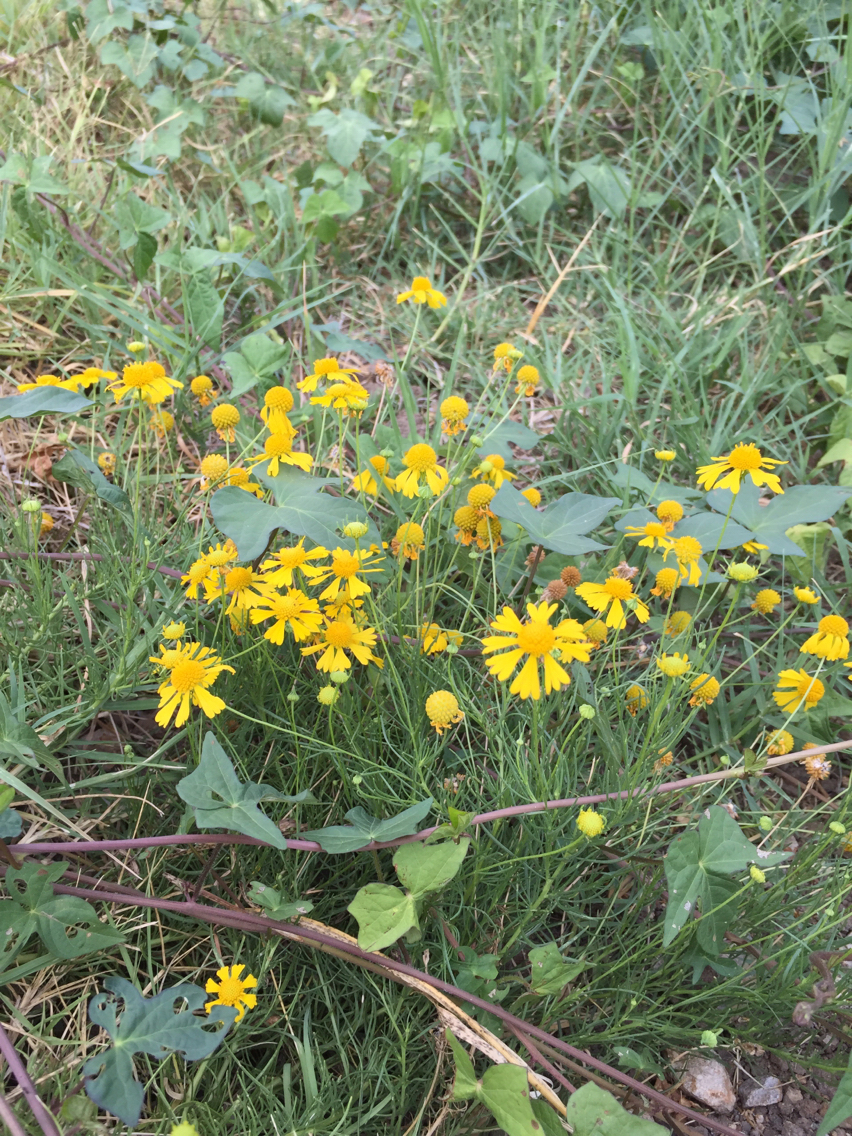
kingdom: Plantae
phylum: Tracheophyta
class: Magnoliopsida
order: Asterales
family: Asteraceae
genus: Helenium
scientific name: Helenium amarum
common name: Bitter sneezeweed
